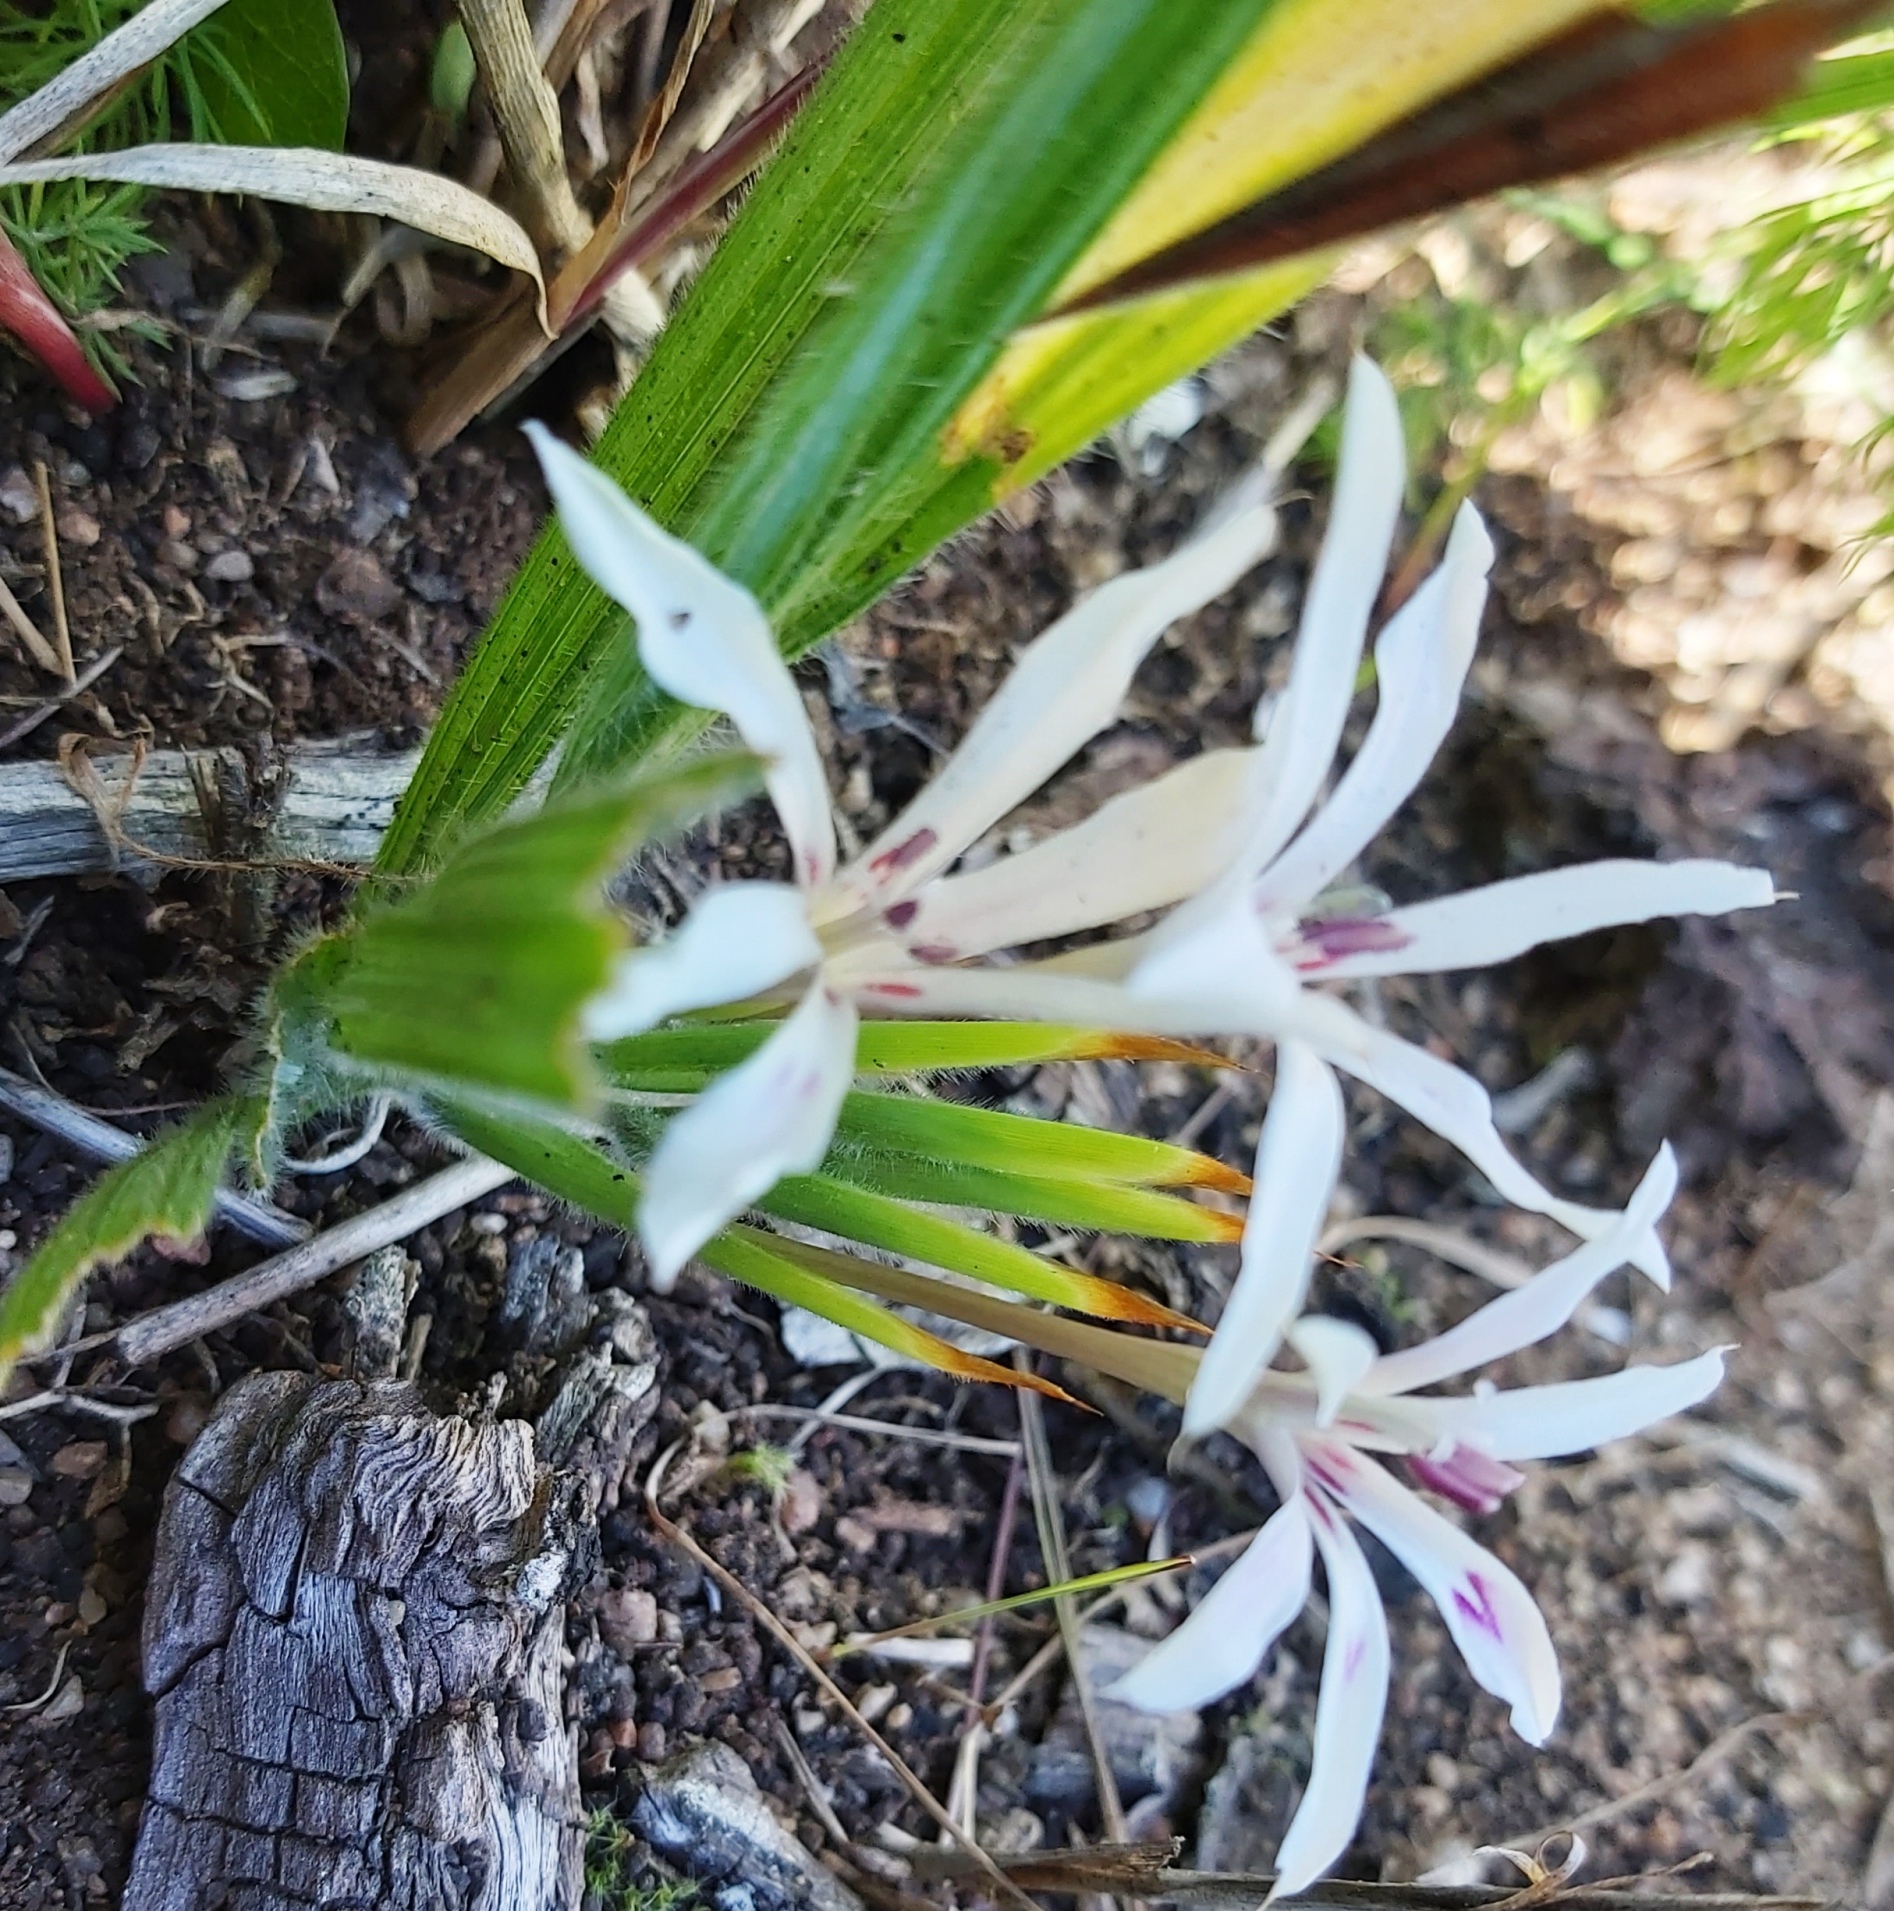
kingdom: Plantae
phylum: Tracheophyta
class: Liliopsida
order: Asparagales
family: Iridaceae
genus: Babiana
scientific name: Babiana tubiflora
